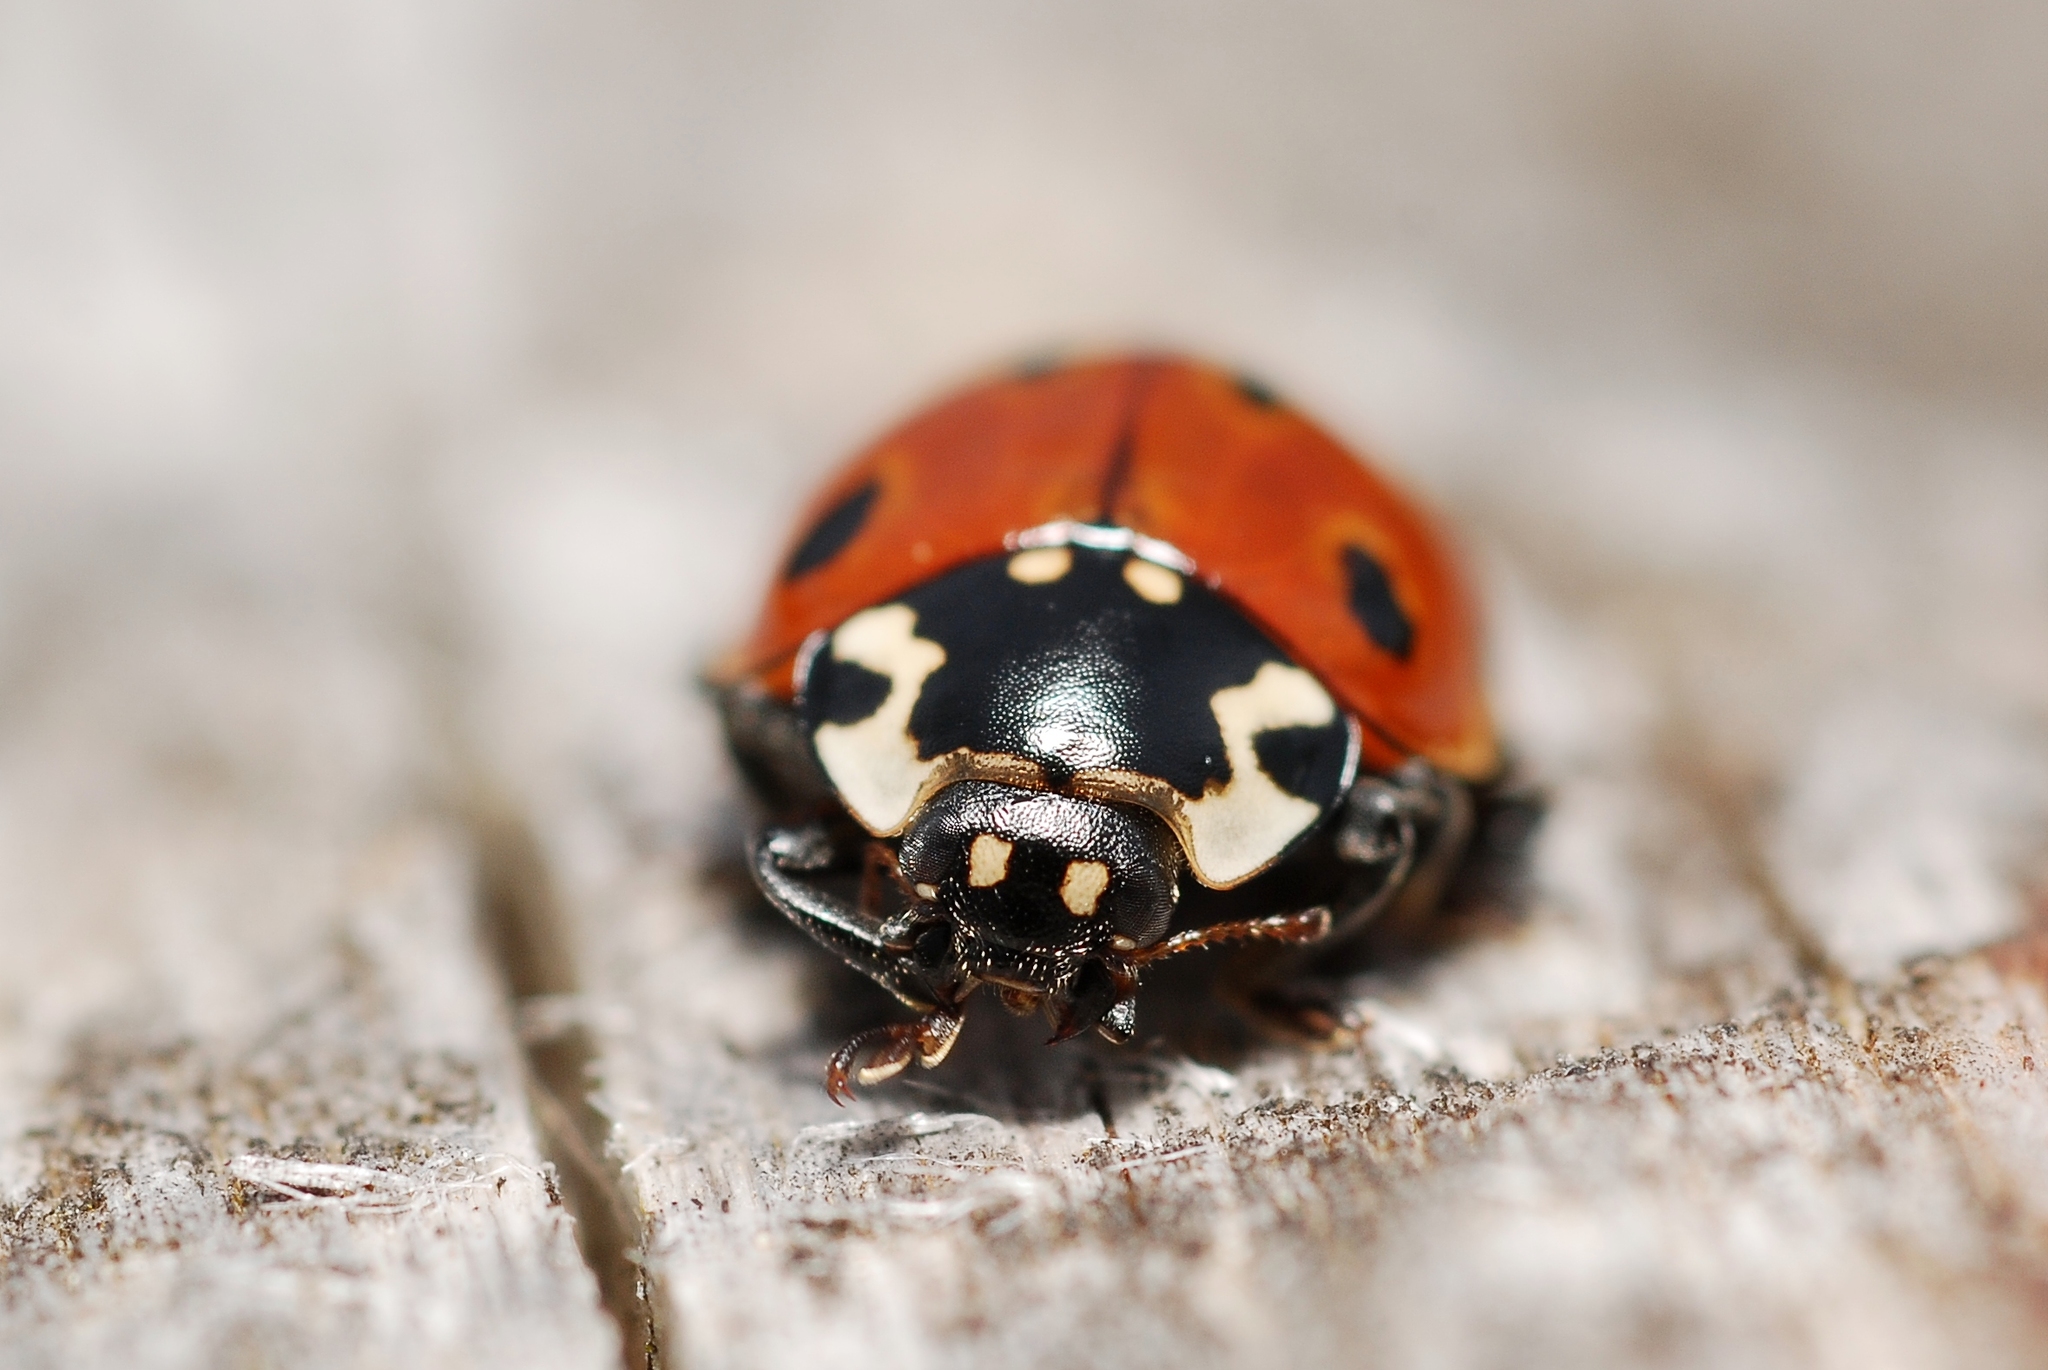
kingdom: Animalia
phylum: Arthropoda
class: Insecta
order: Coleoptera
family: Coccinellidae
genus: Anatis
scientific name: Anatis ocellata
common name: Eyed ladybird
